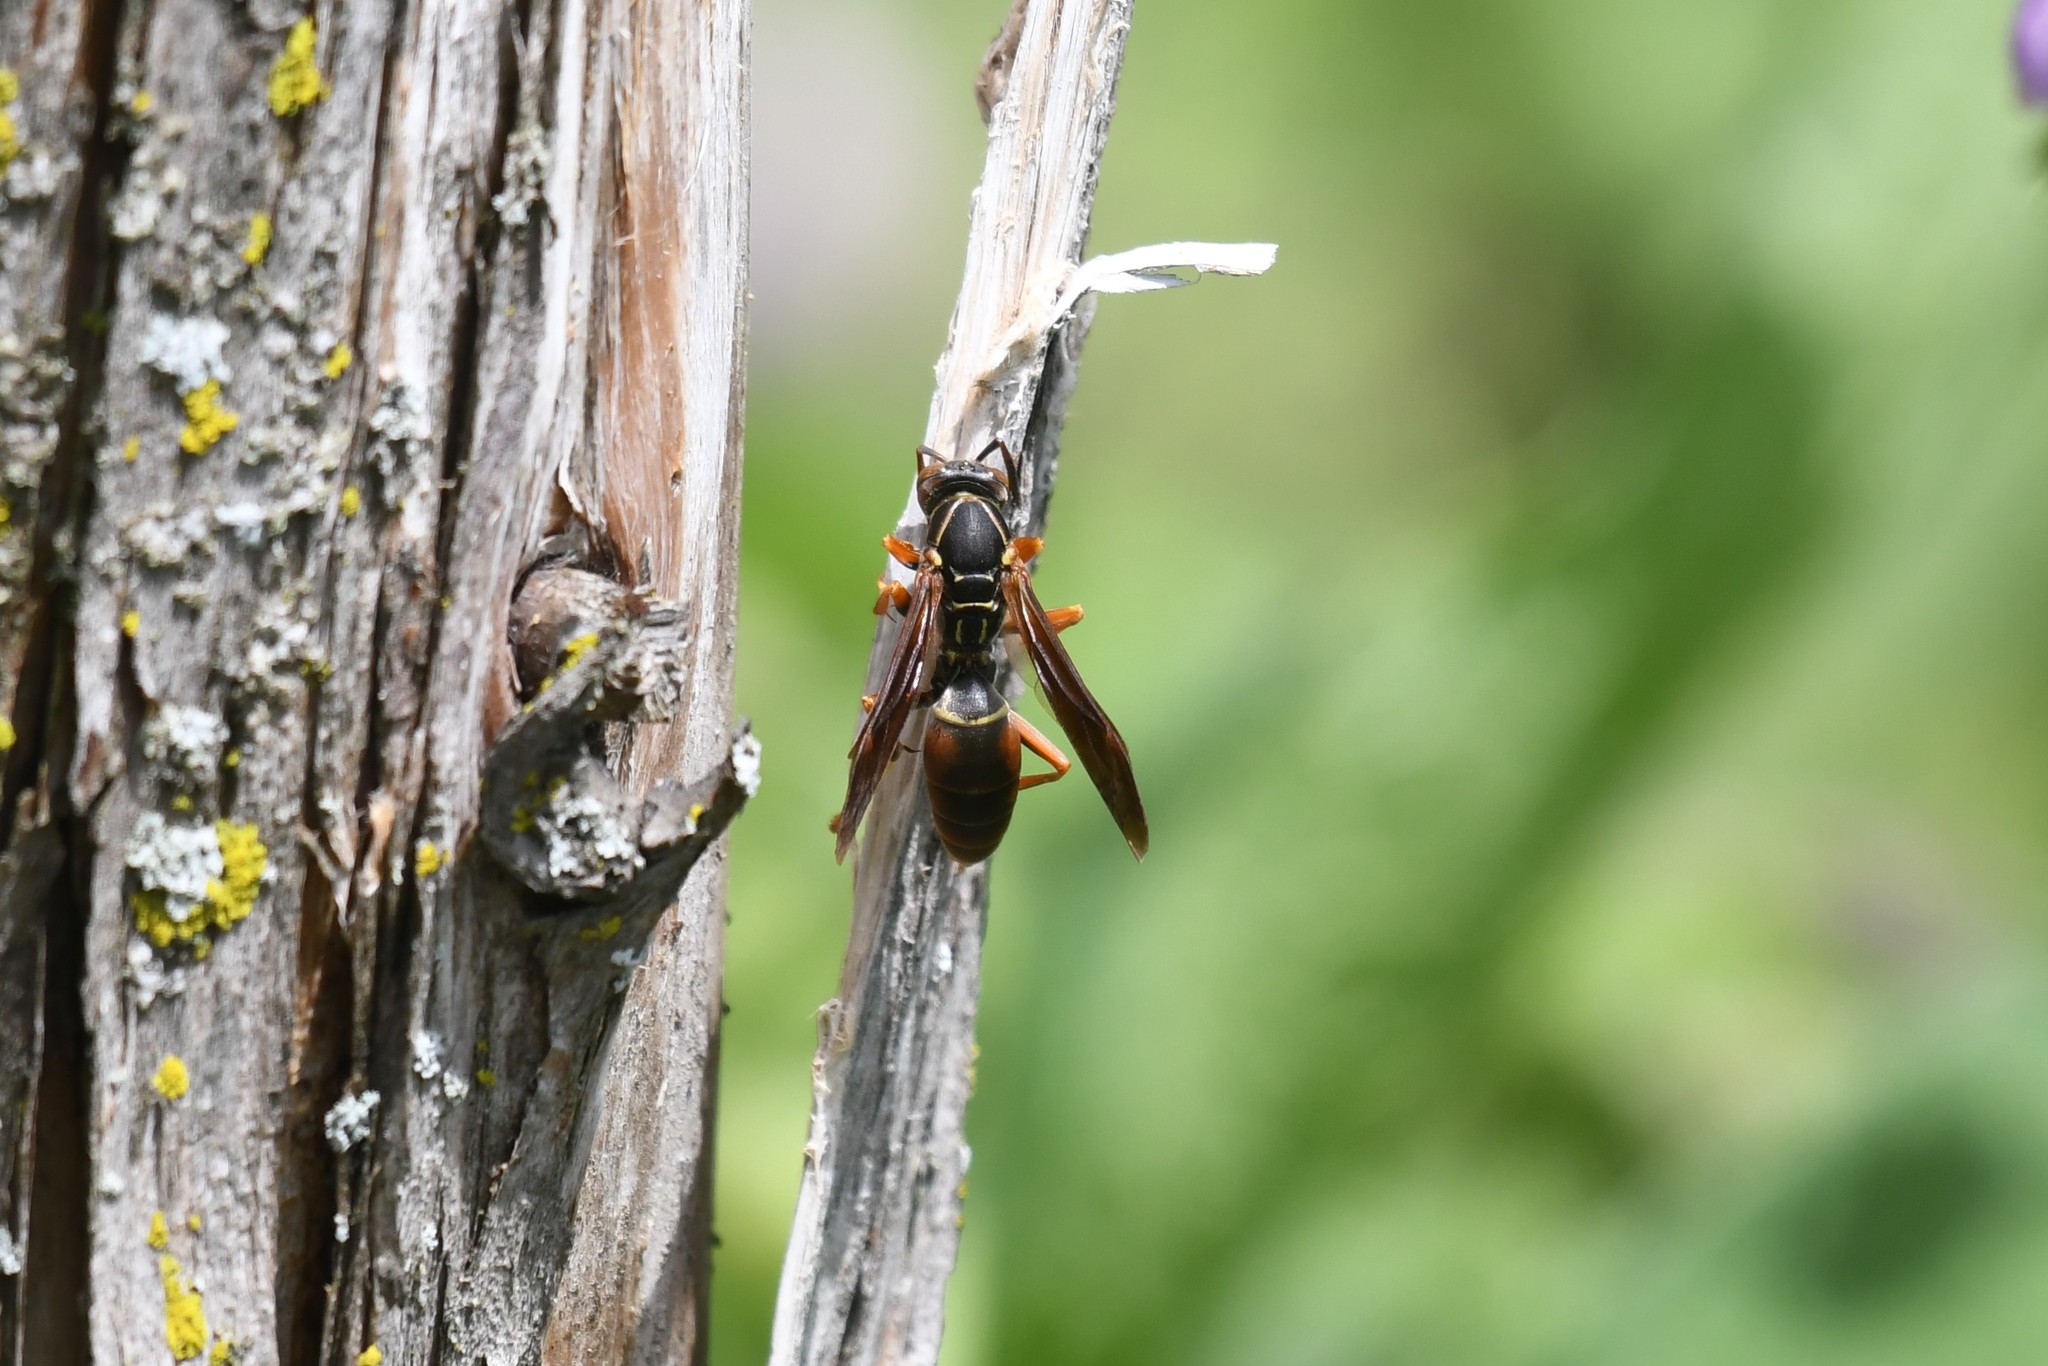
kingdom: Animalia
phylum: Arthropoda
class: Insecta
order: Hymenoptera
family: Eumenidae
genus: Polistes
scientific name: Polistes fuscatus
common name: Dark paper wasp
